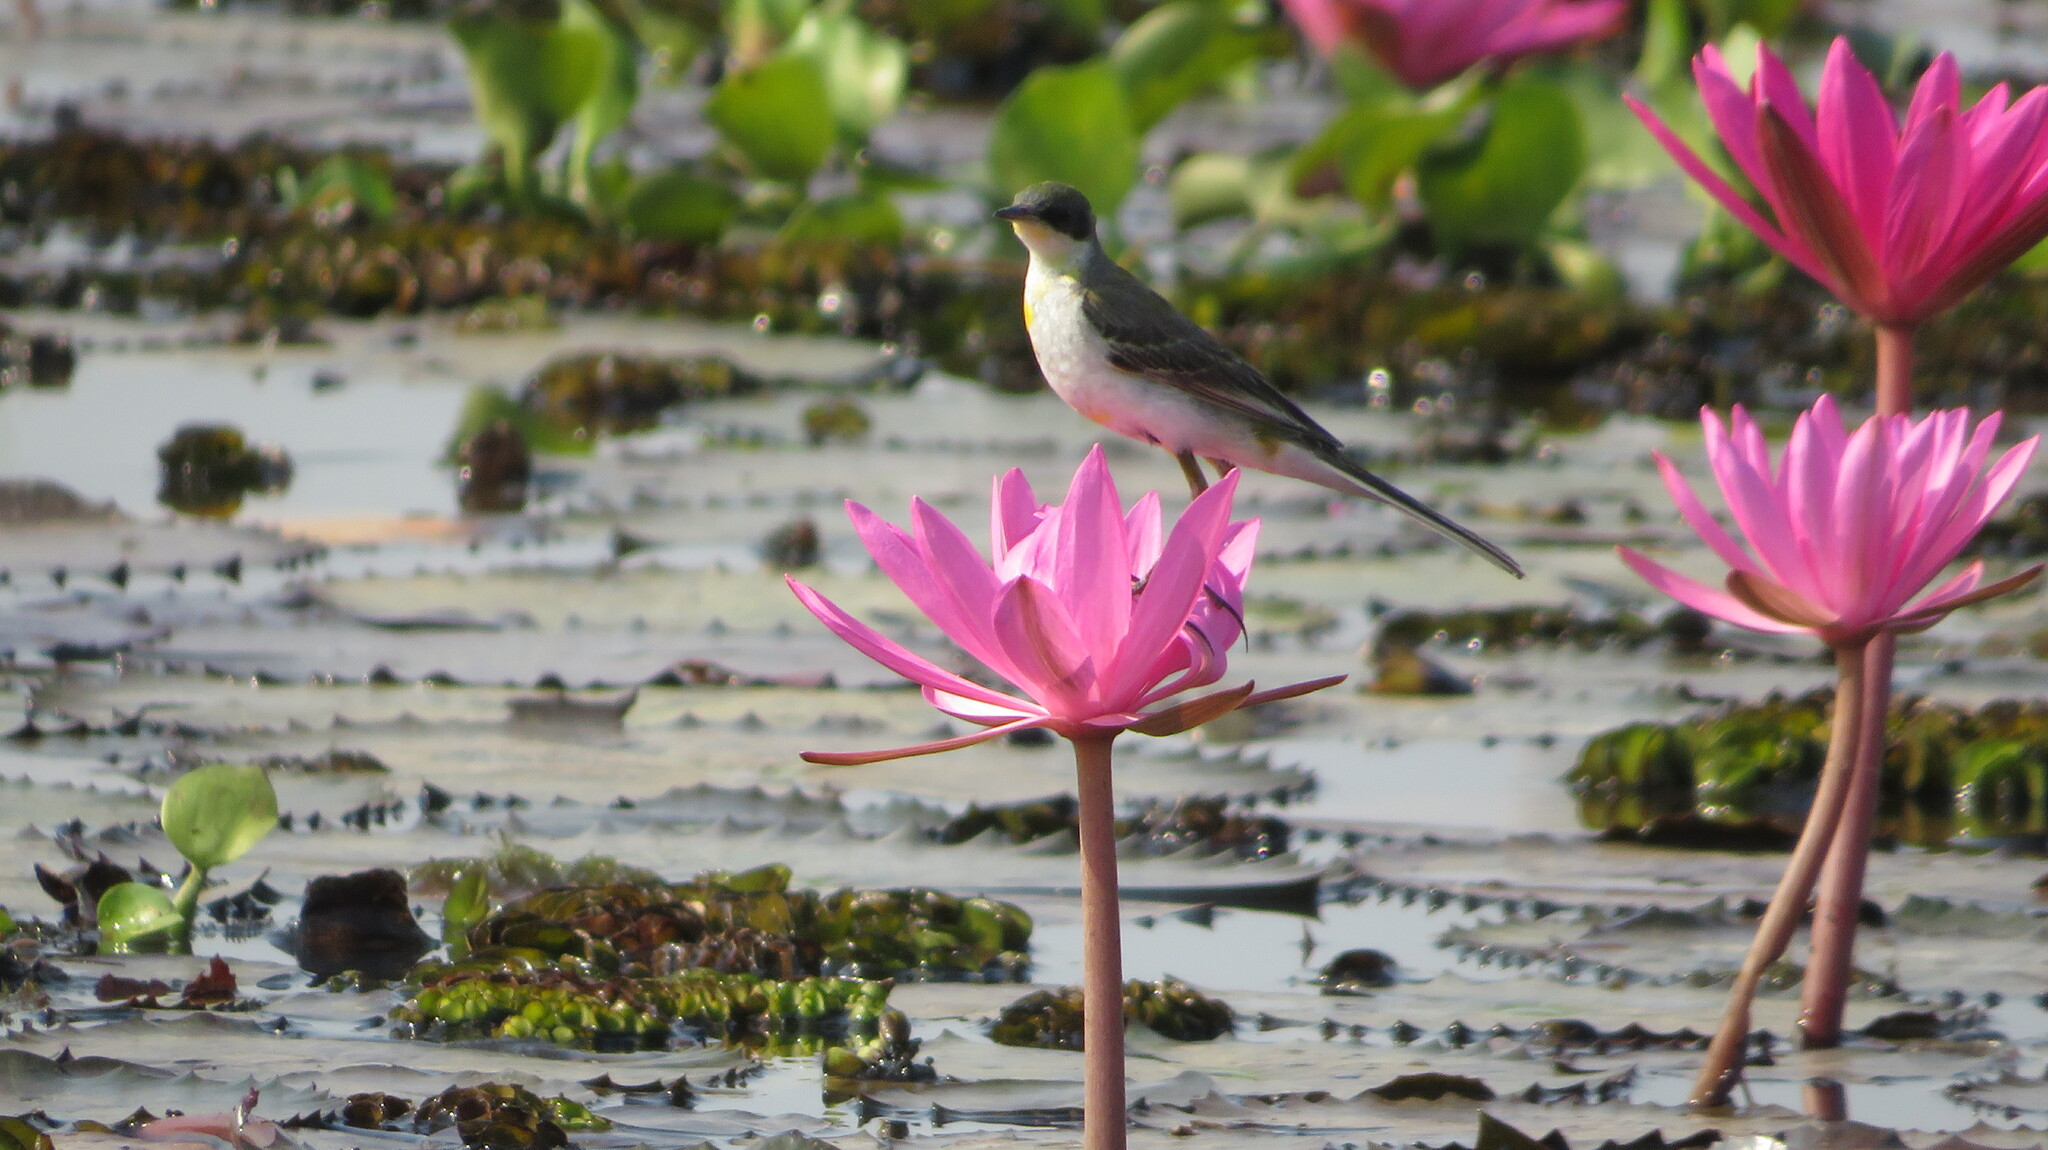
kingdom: Animalia
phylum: Chordata
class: Aves
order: Passeriformes
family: Motacillidae
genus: Motacilla
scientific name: Motacilla tschutschensis
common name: Eastern yellow wagtail
